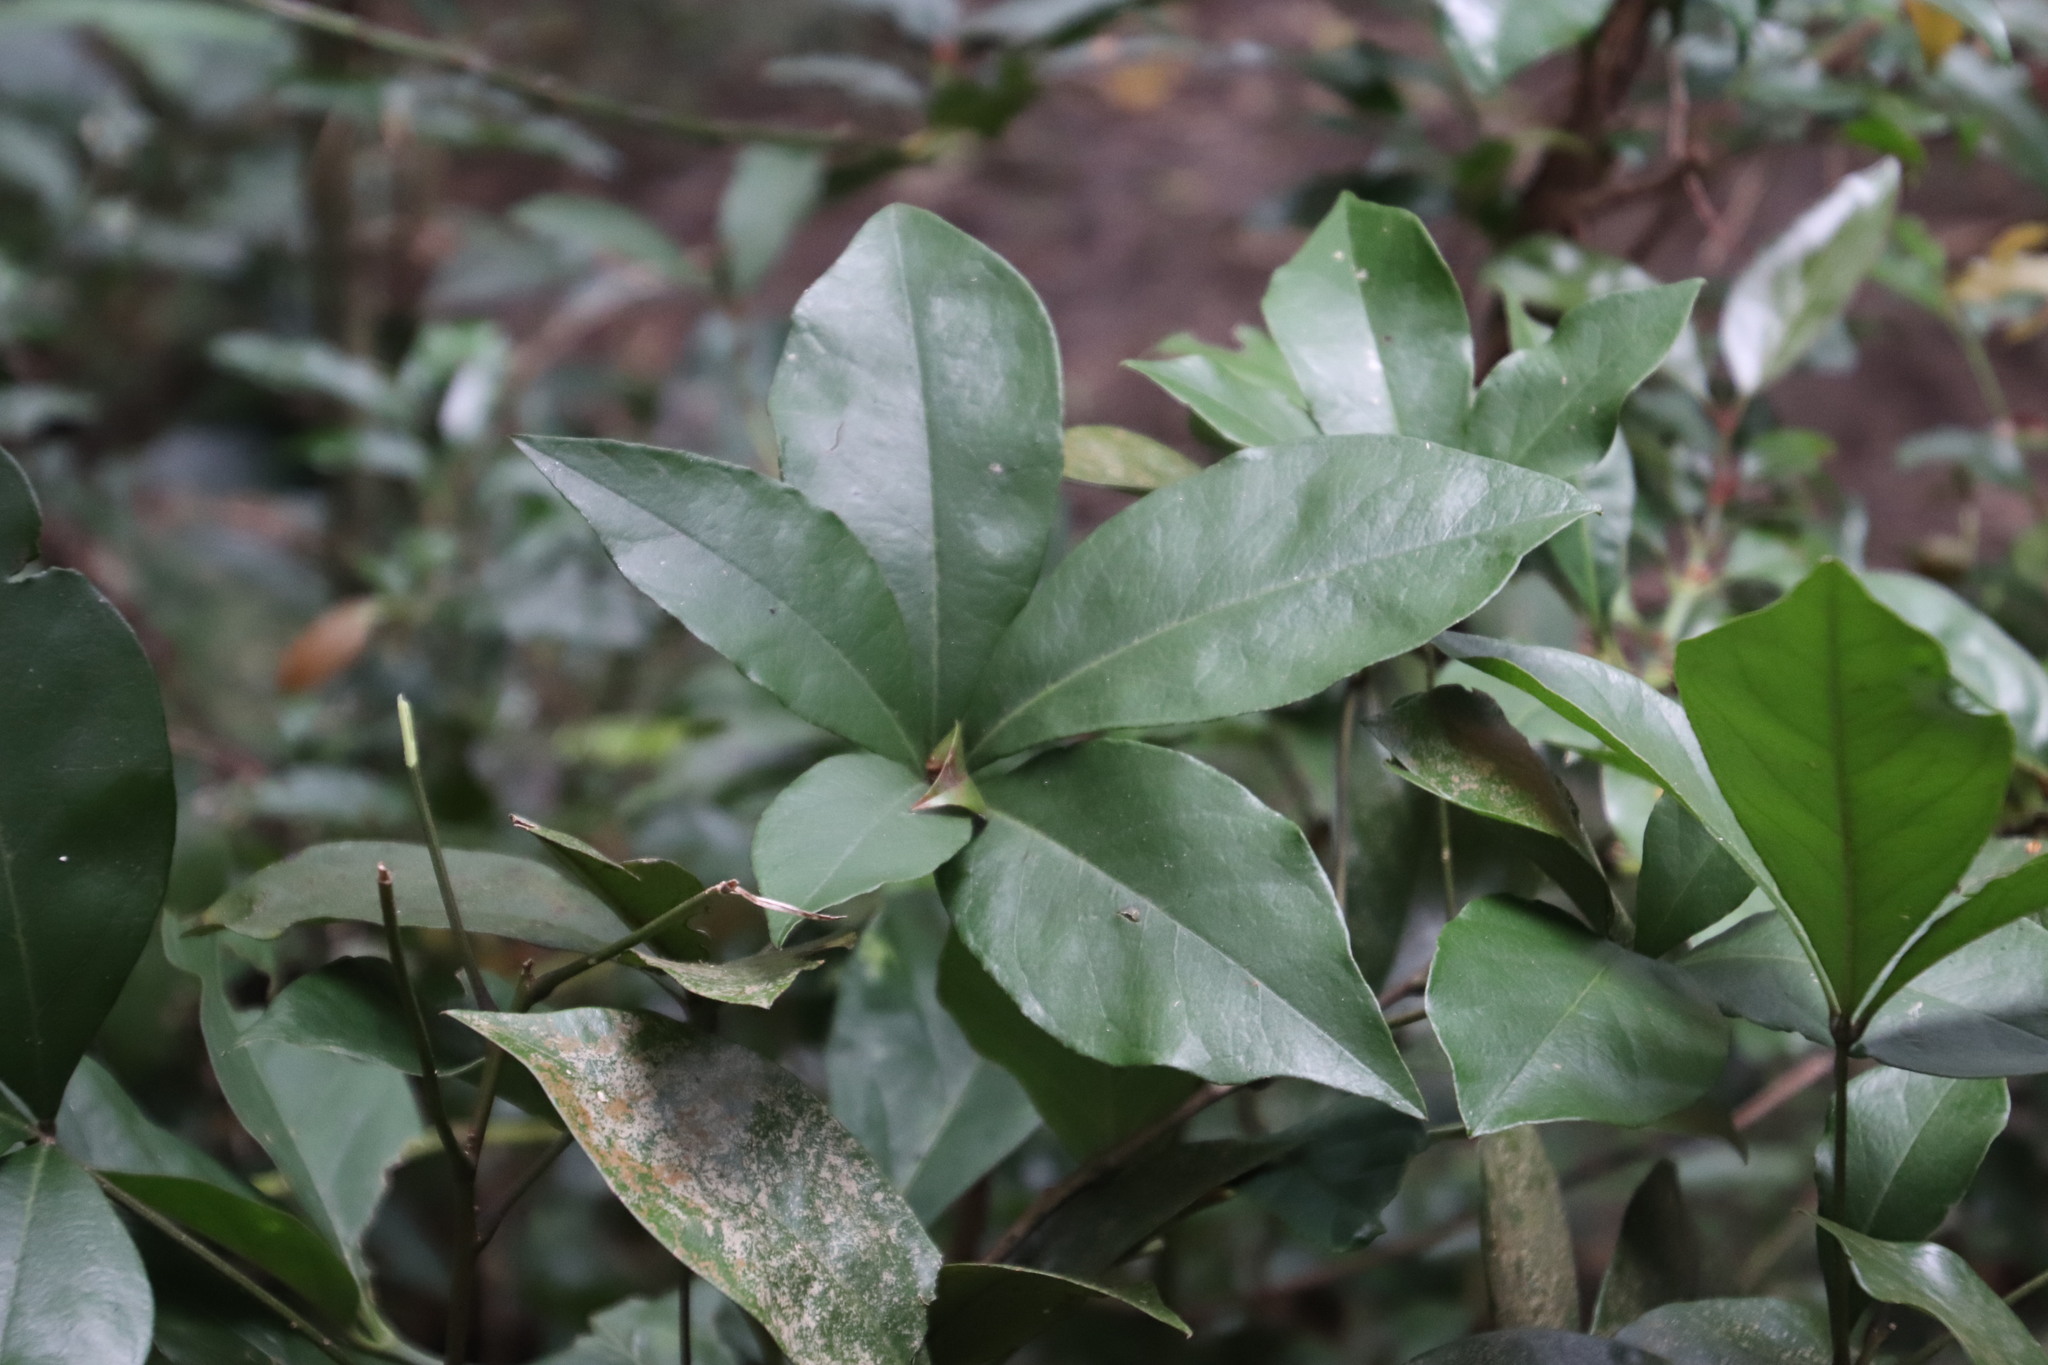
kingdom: Plantae
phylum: Tracheophyta
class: Magnoliopsida
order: Brassicales
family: Capparaceae
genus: Bachmannia
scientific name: Bachmannia woodii
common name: Four-finger bush
